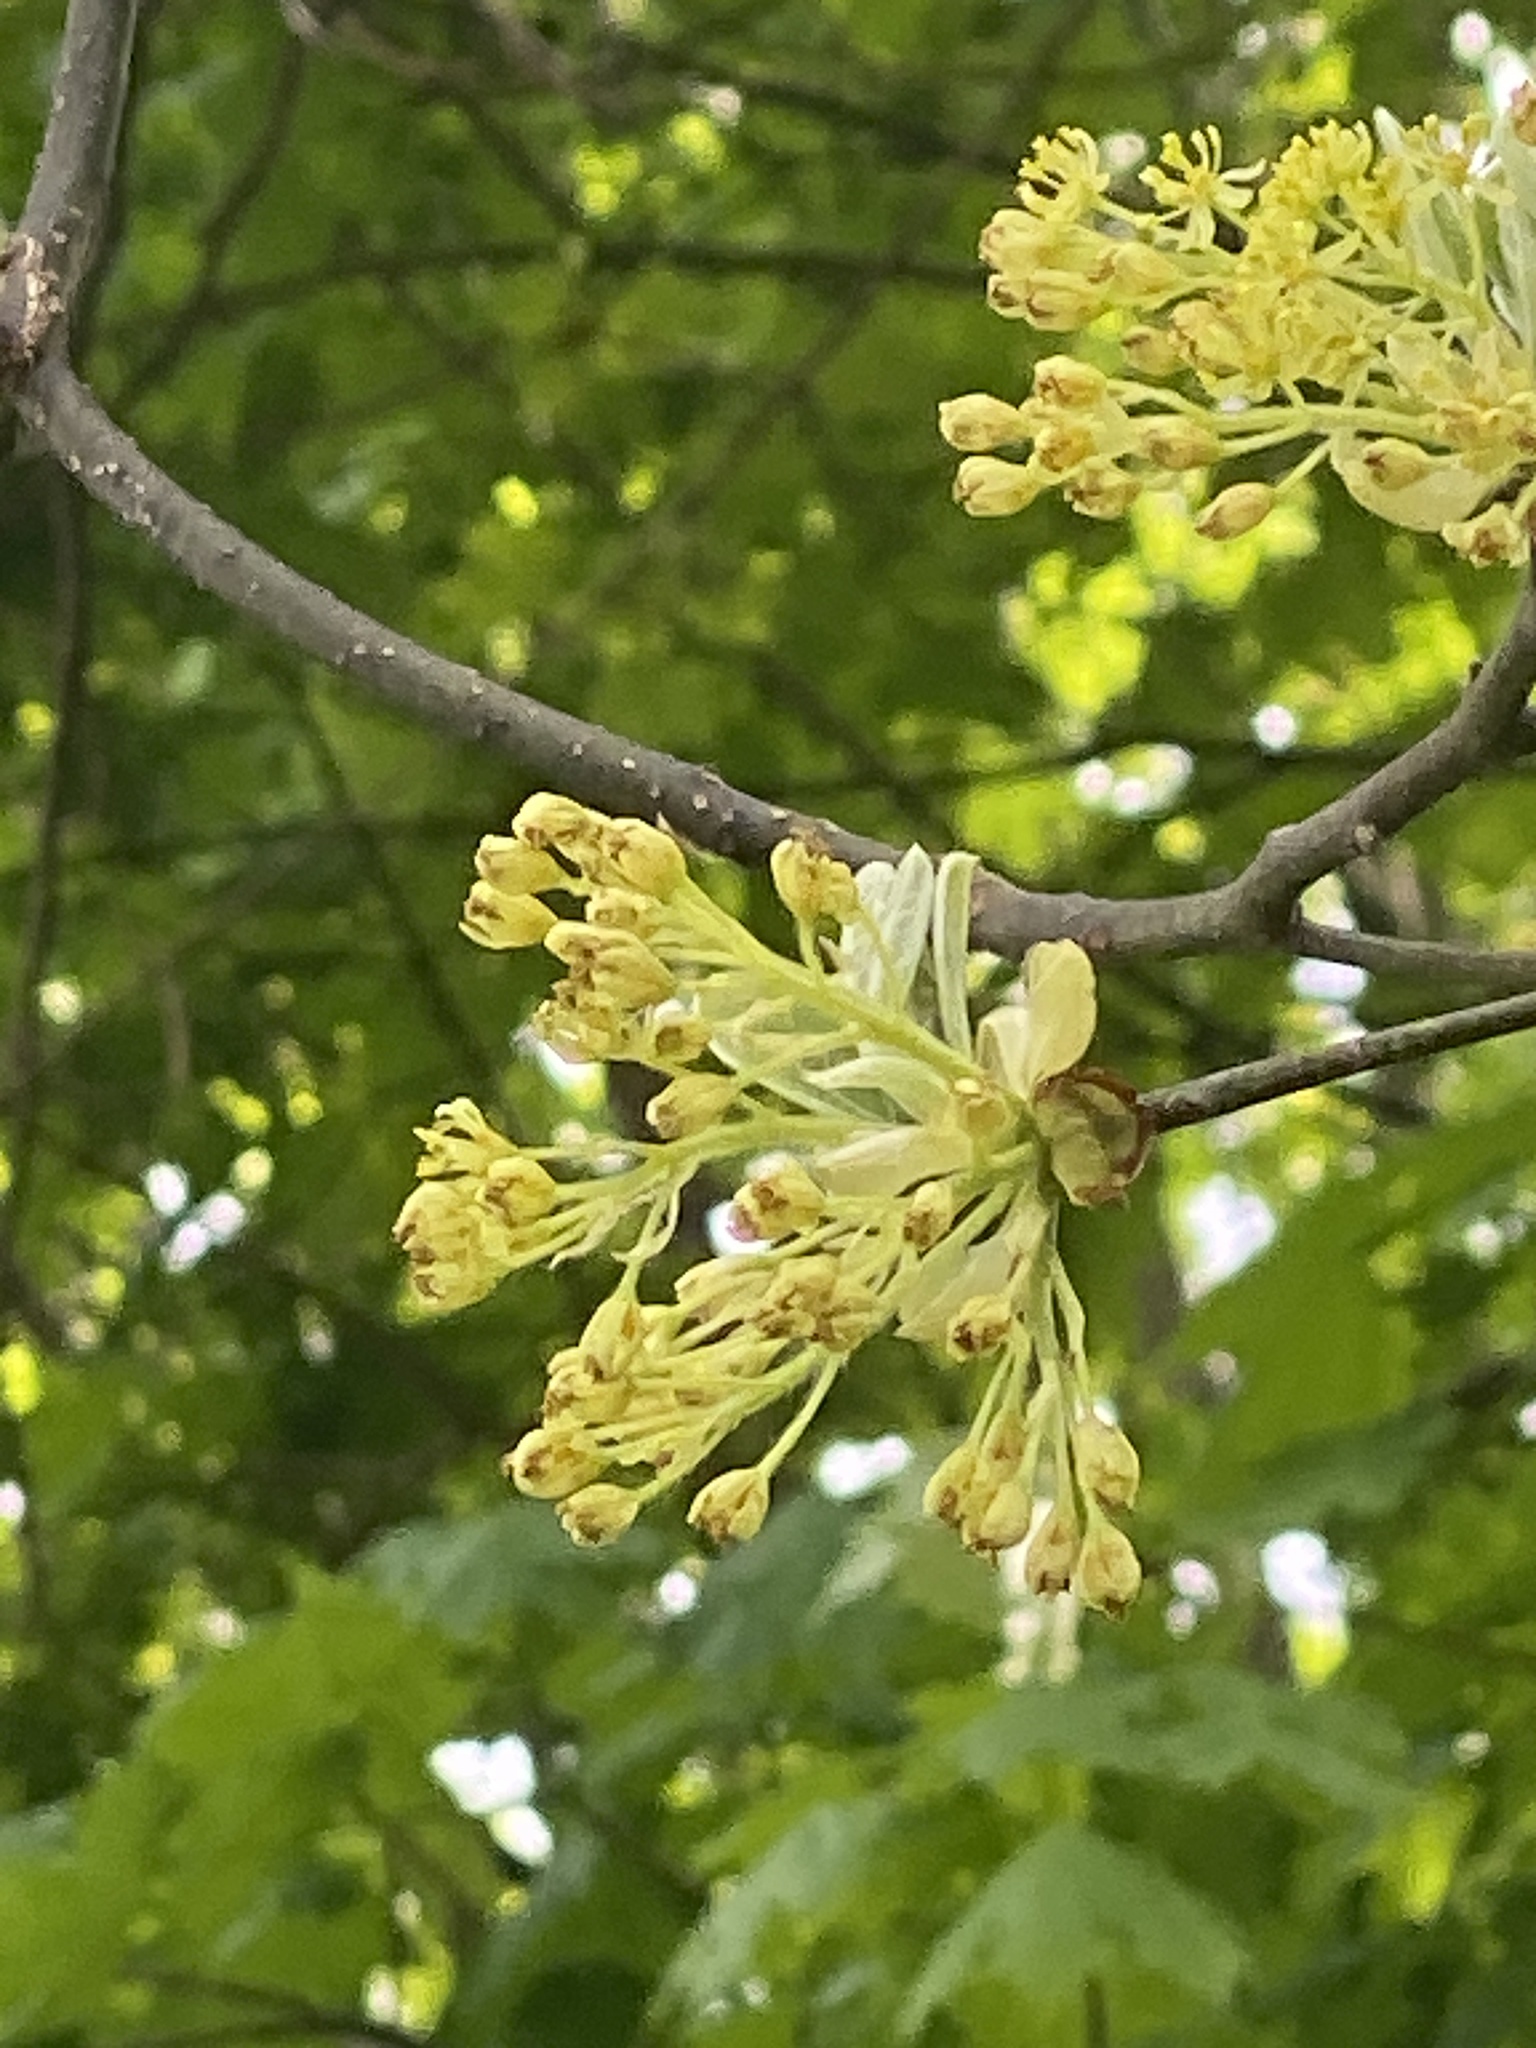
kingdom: Plantae
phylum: Tracheophyta
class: Magnoliopsida
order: Laurales
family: Lauraceae
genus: Sassafras
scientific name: Sassafras albidum
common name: Sassafras
